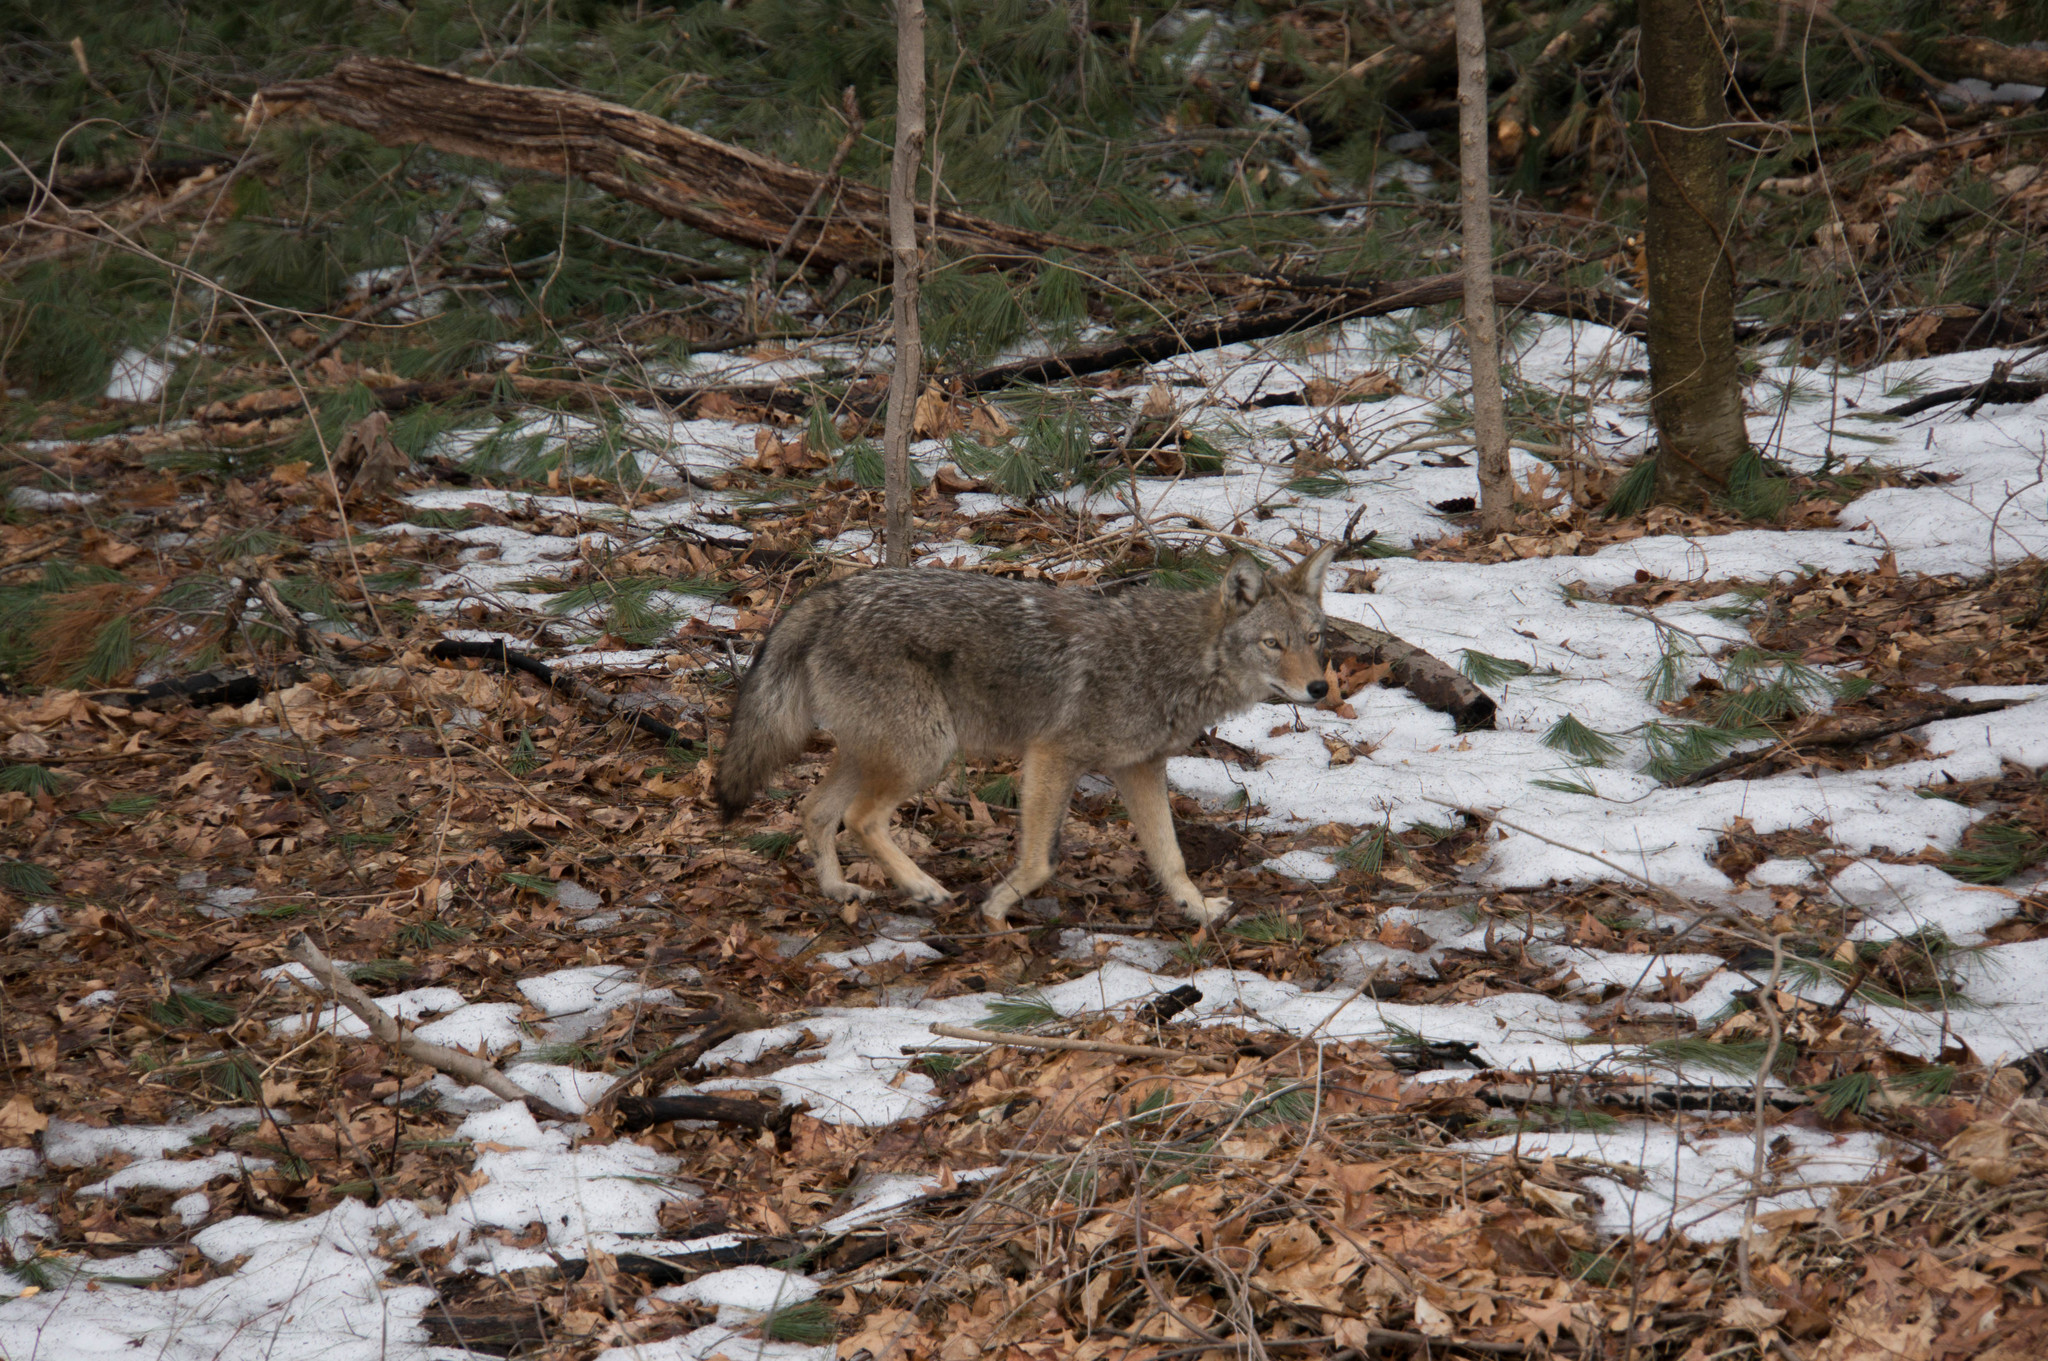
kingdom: Animalia
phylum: Chordata
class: Mammalia
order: Carnivora
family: Canidae
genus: Canis
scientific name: Canis latrans
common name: Coyote
